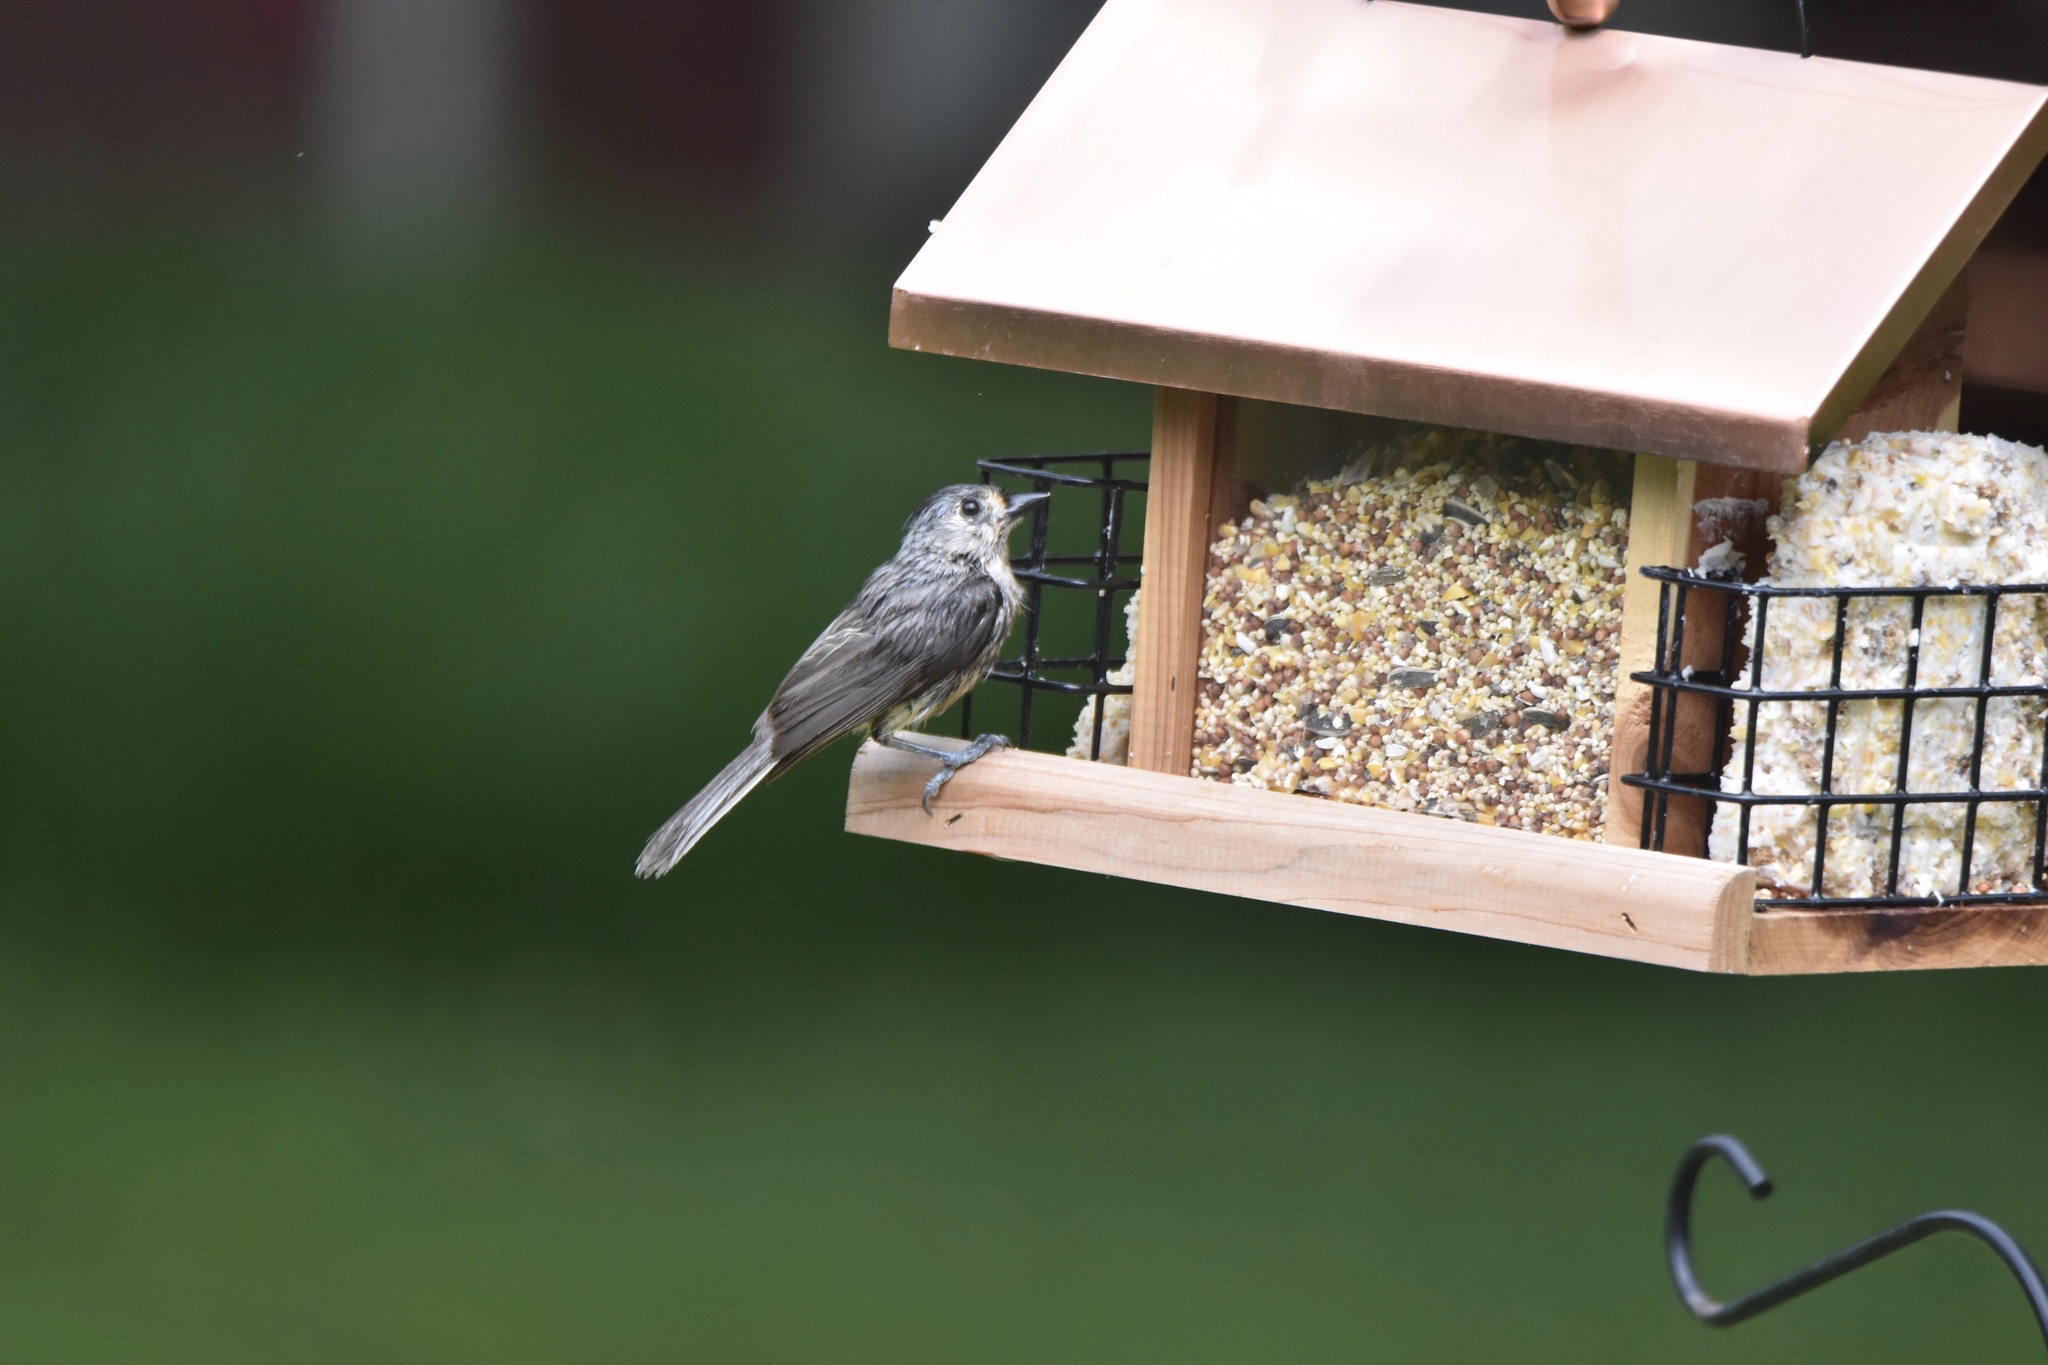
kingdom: Animalia
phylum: Chordata
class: Aves
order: Passeriformes
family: Paridae
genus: Baeolophus
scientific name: Baeolophus bicolor
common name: Tufted titmouse
